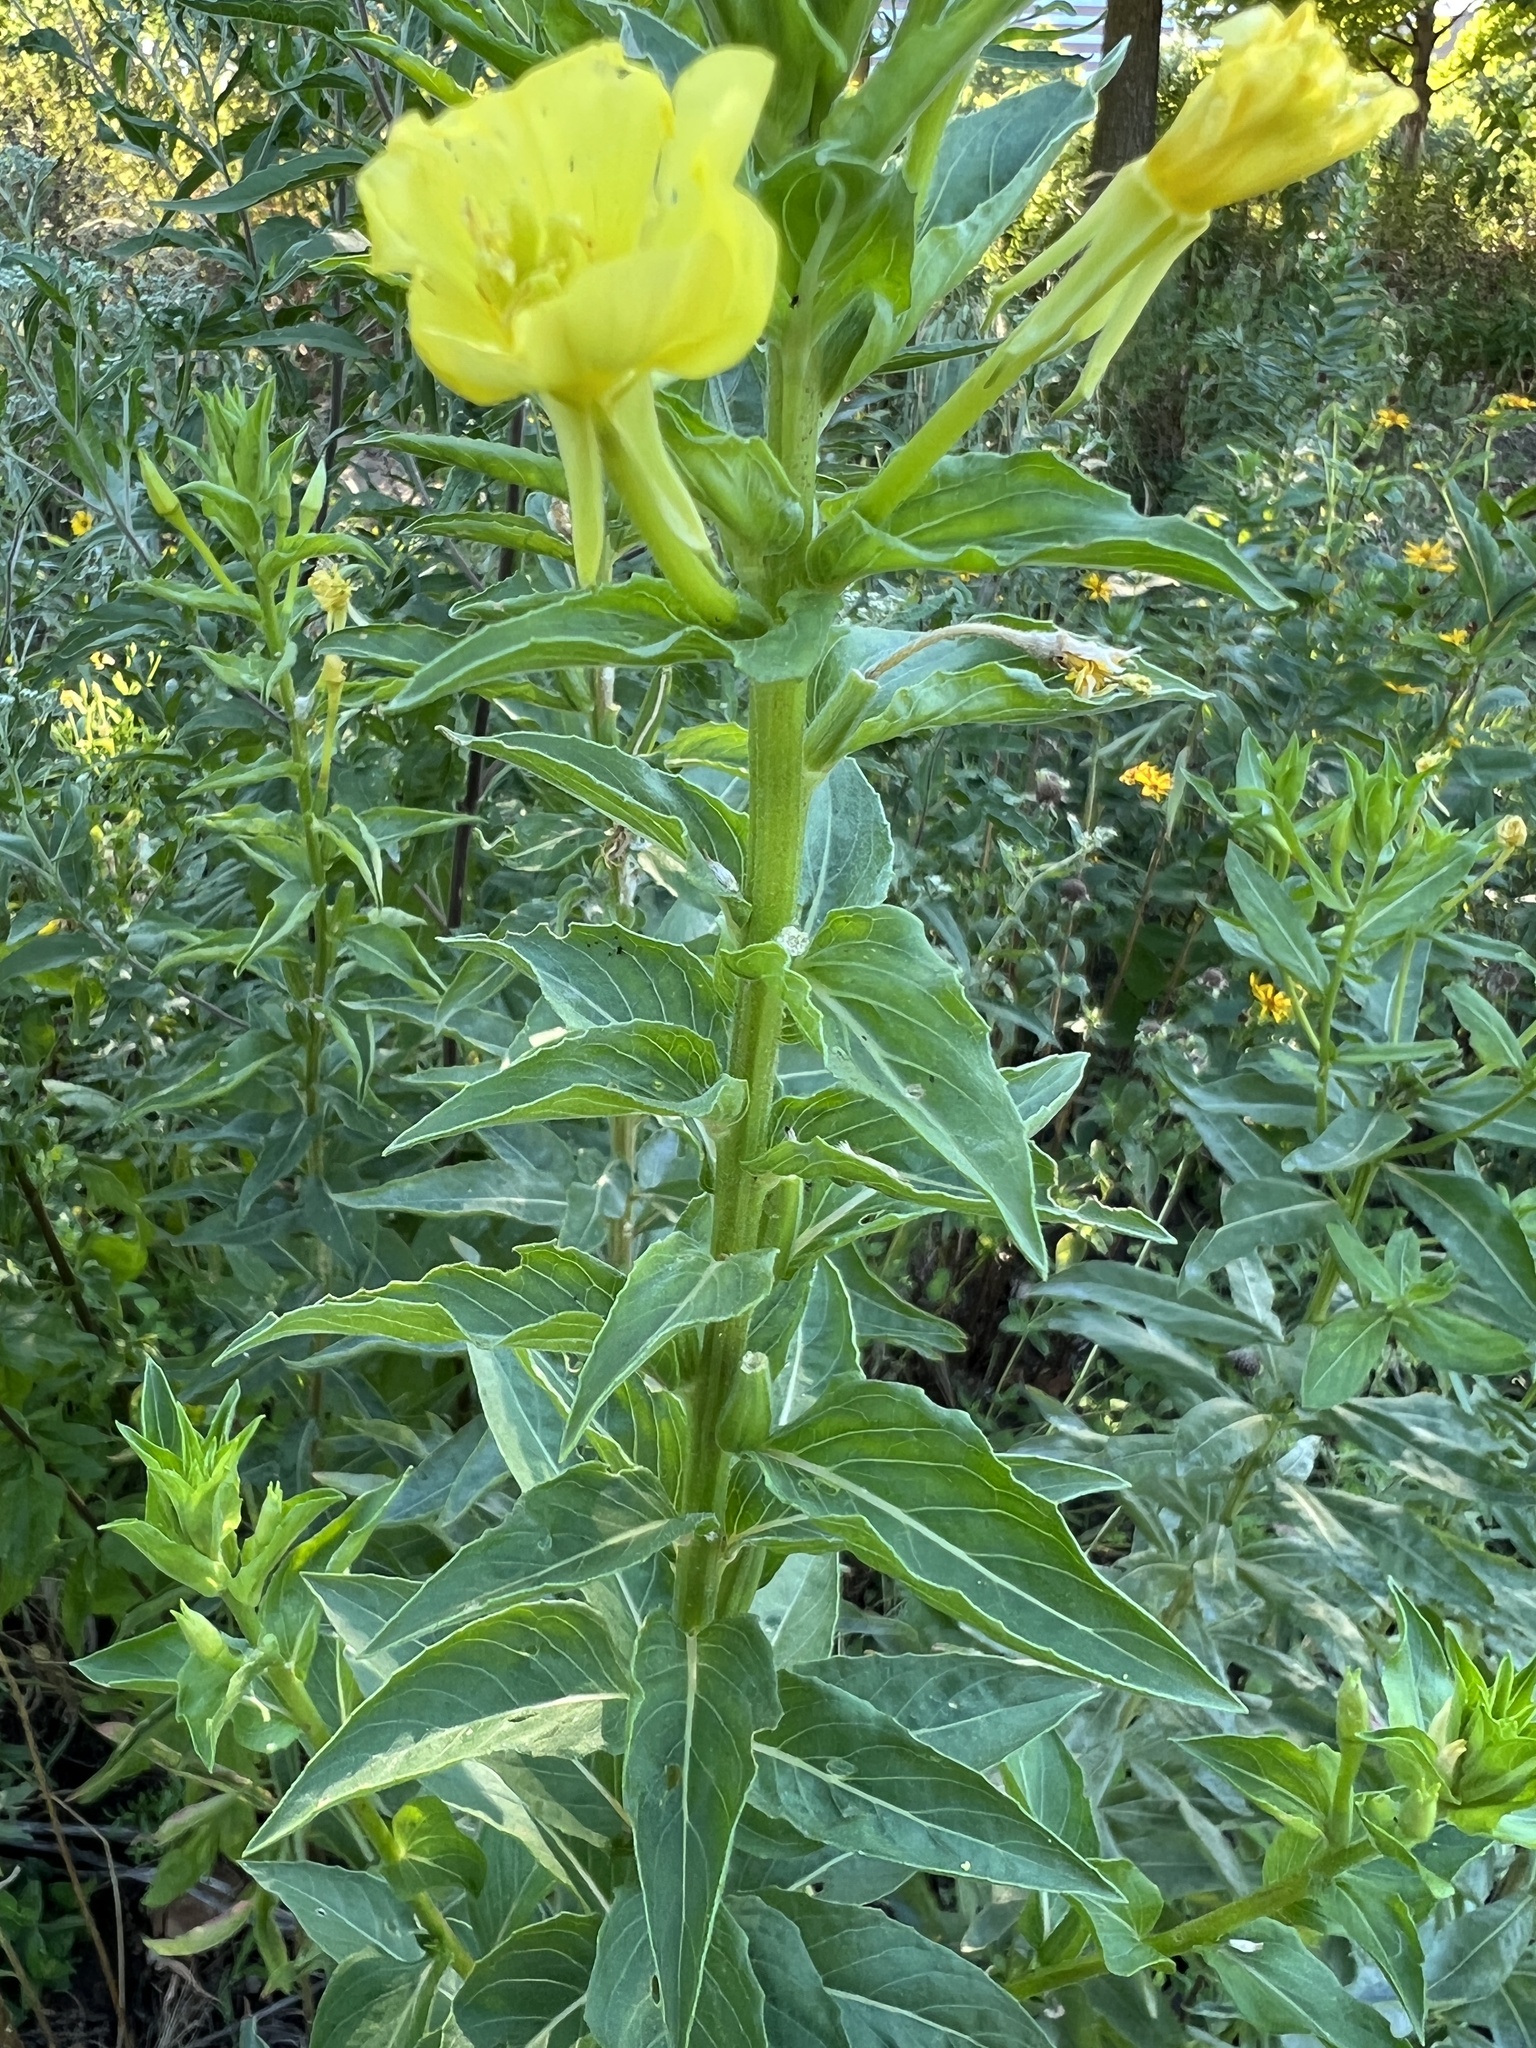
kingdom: Plantae
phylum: Tracheophyta
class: Magnoliopsida
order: Myrtales
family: Onagraceae
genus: Oenothera
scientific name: Oenothera biennis
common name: Common evening-primrose
